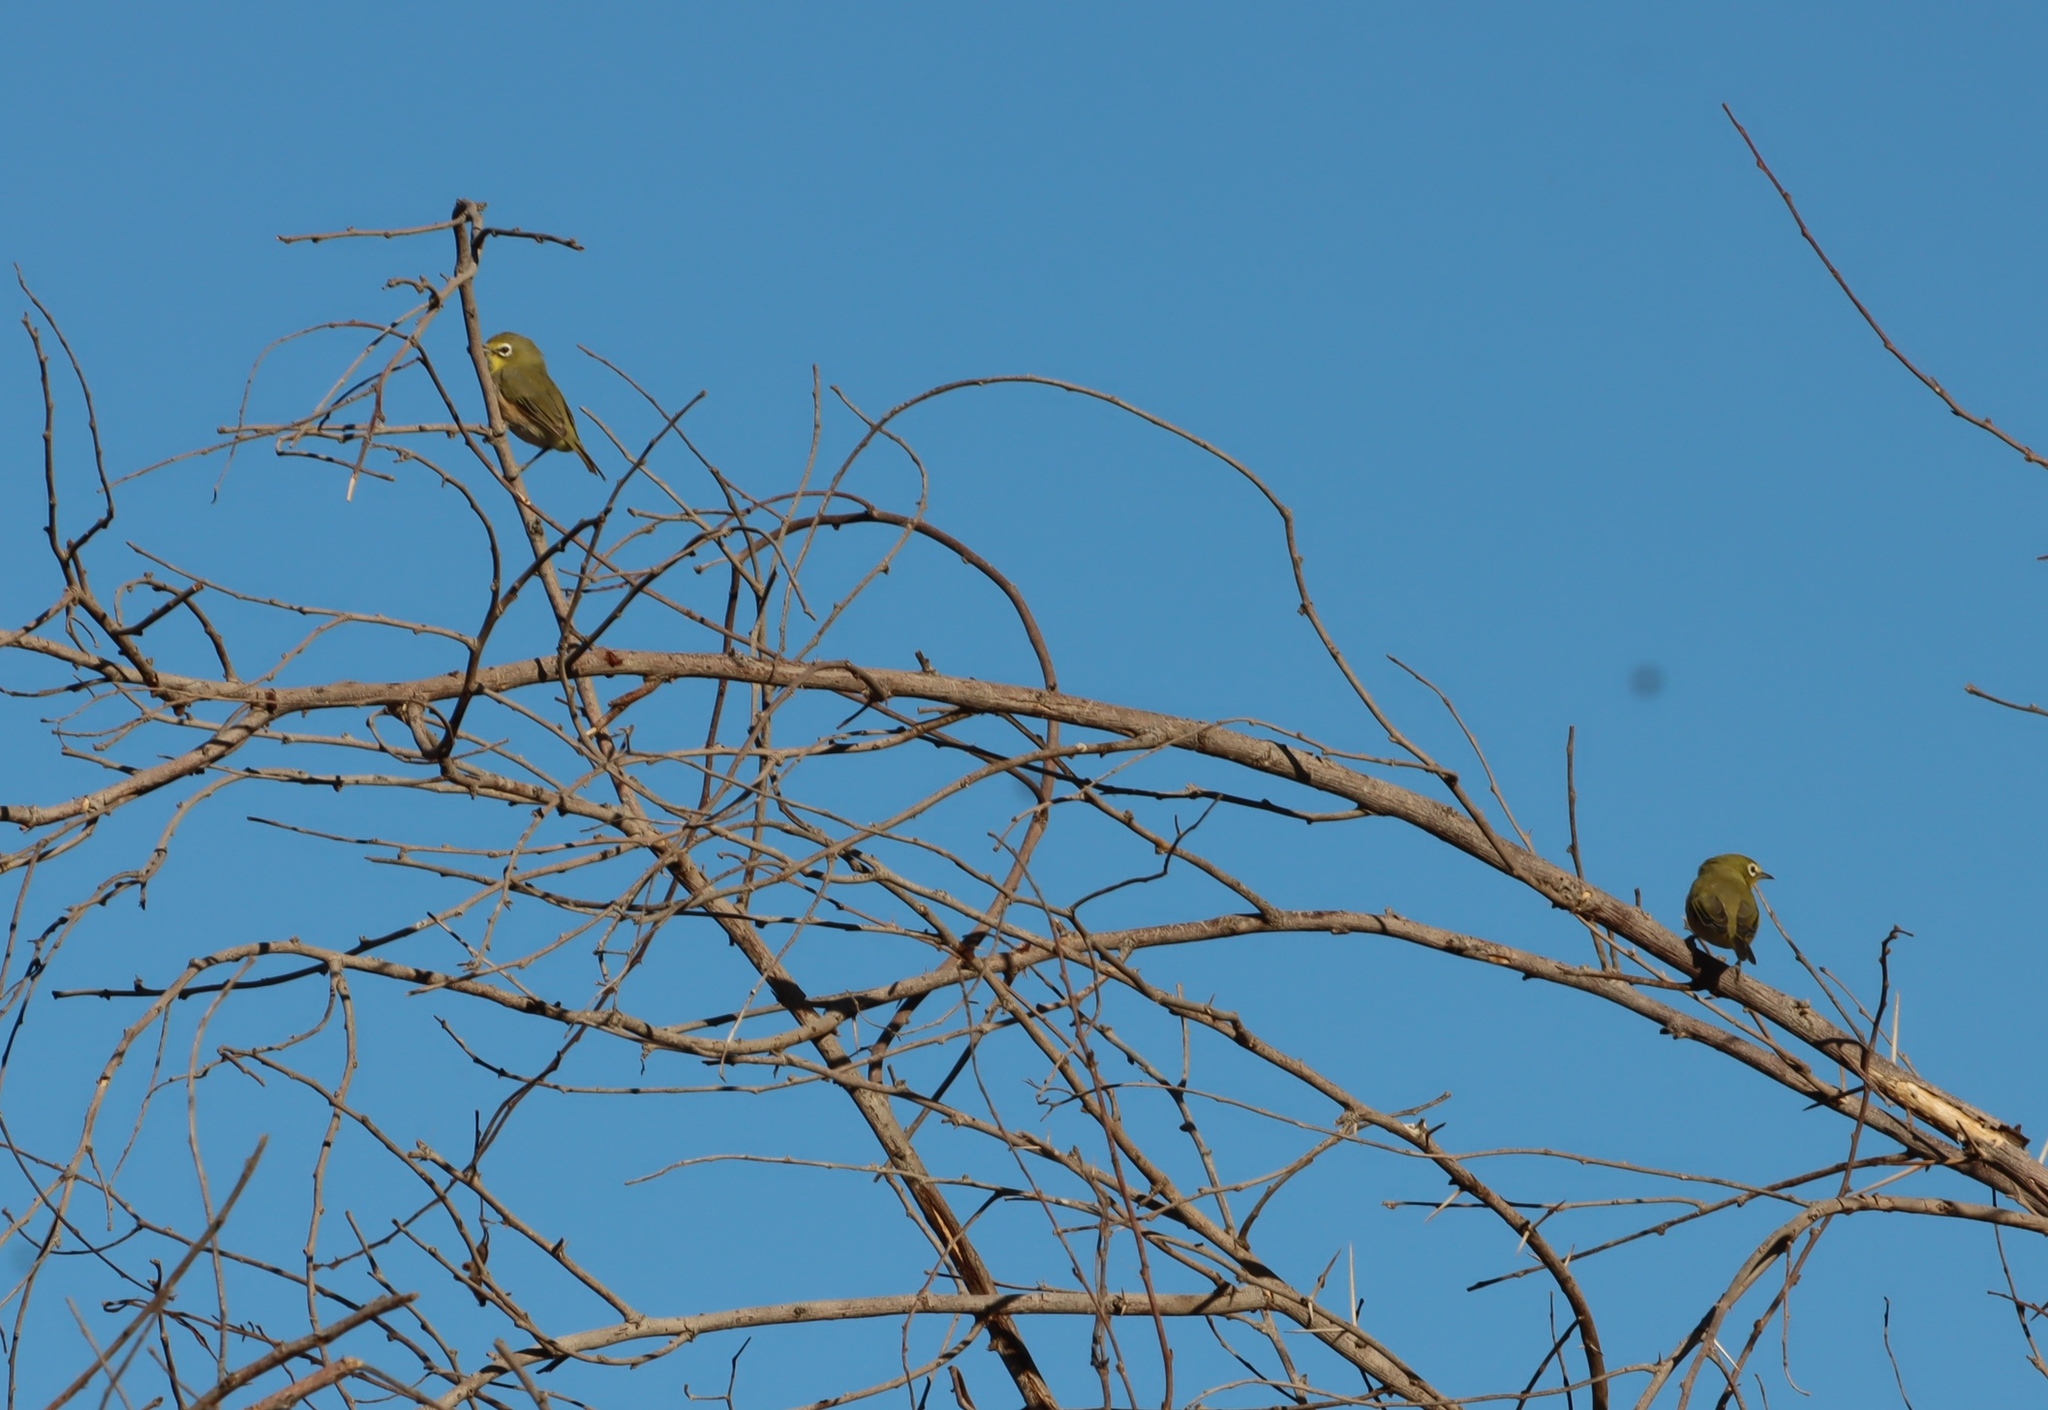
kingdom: Animalia
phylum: Chordata
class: Aves
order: Passeriformes
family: Zosteropidae
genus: Zosterops
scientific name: Zosterops pallidus
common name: Orange river white-eye
